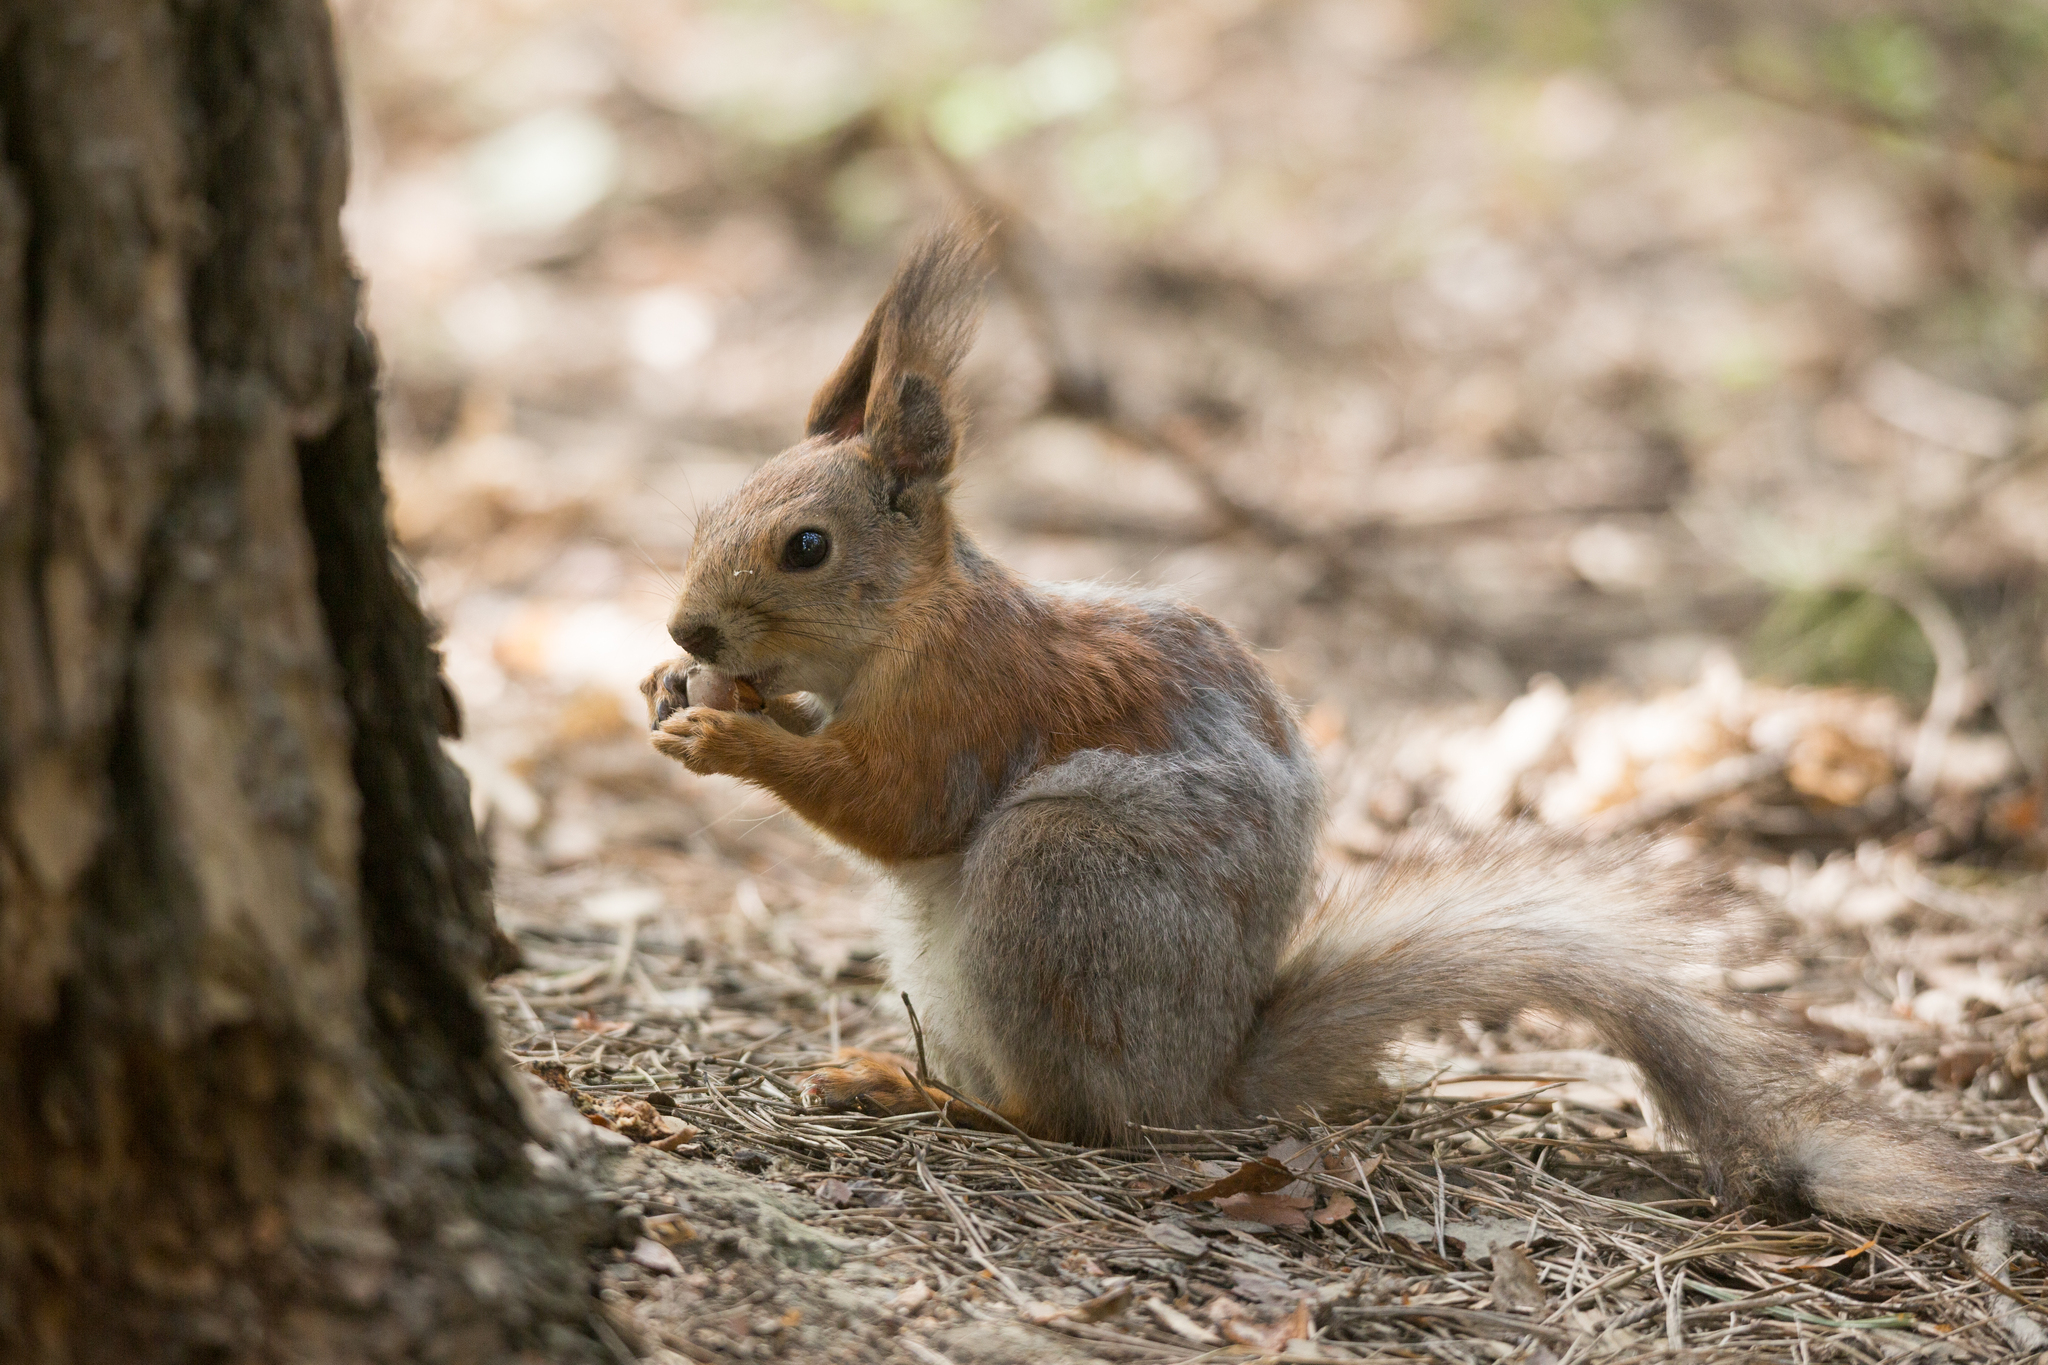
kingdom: Animalia
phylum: Chordata
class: Mammalia
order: Rodentia
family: Sciuridae
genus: Sciurus
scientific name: Sciurus vulgaris
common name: Eurasian red squirrel
